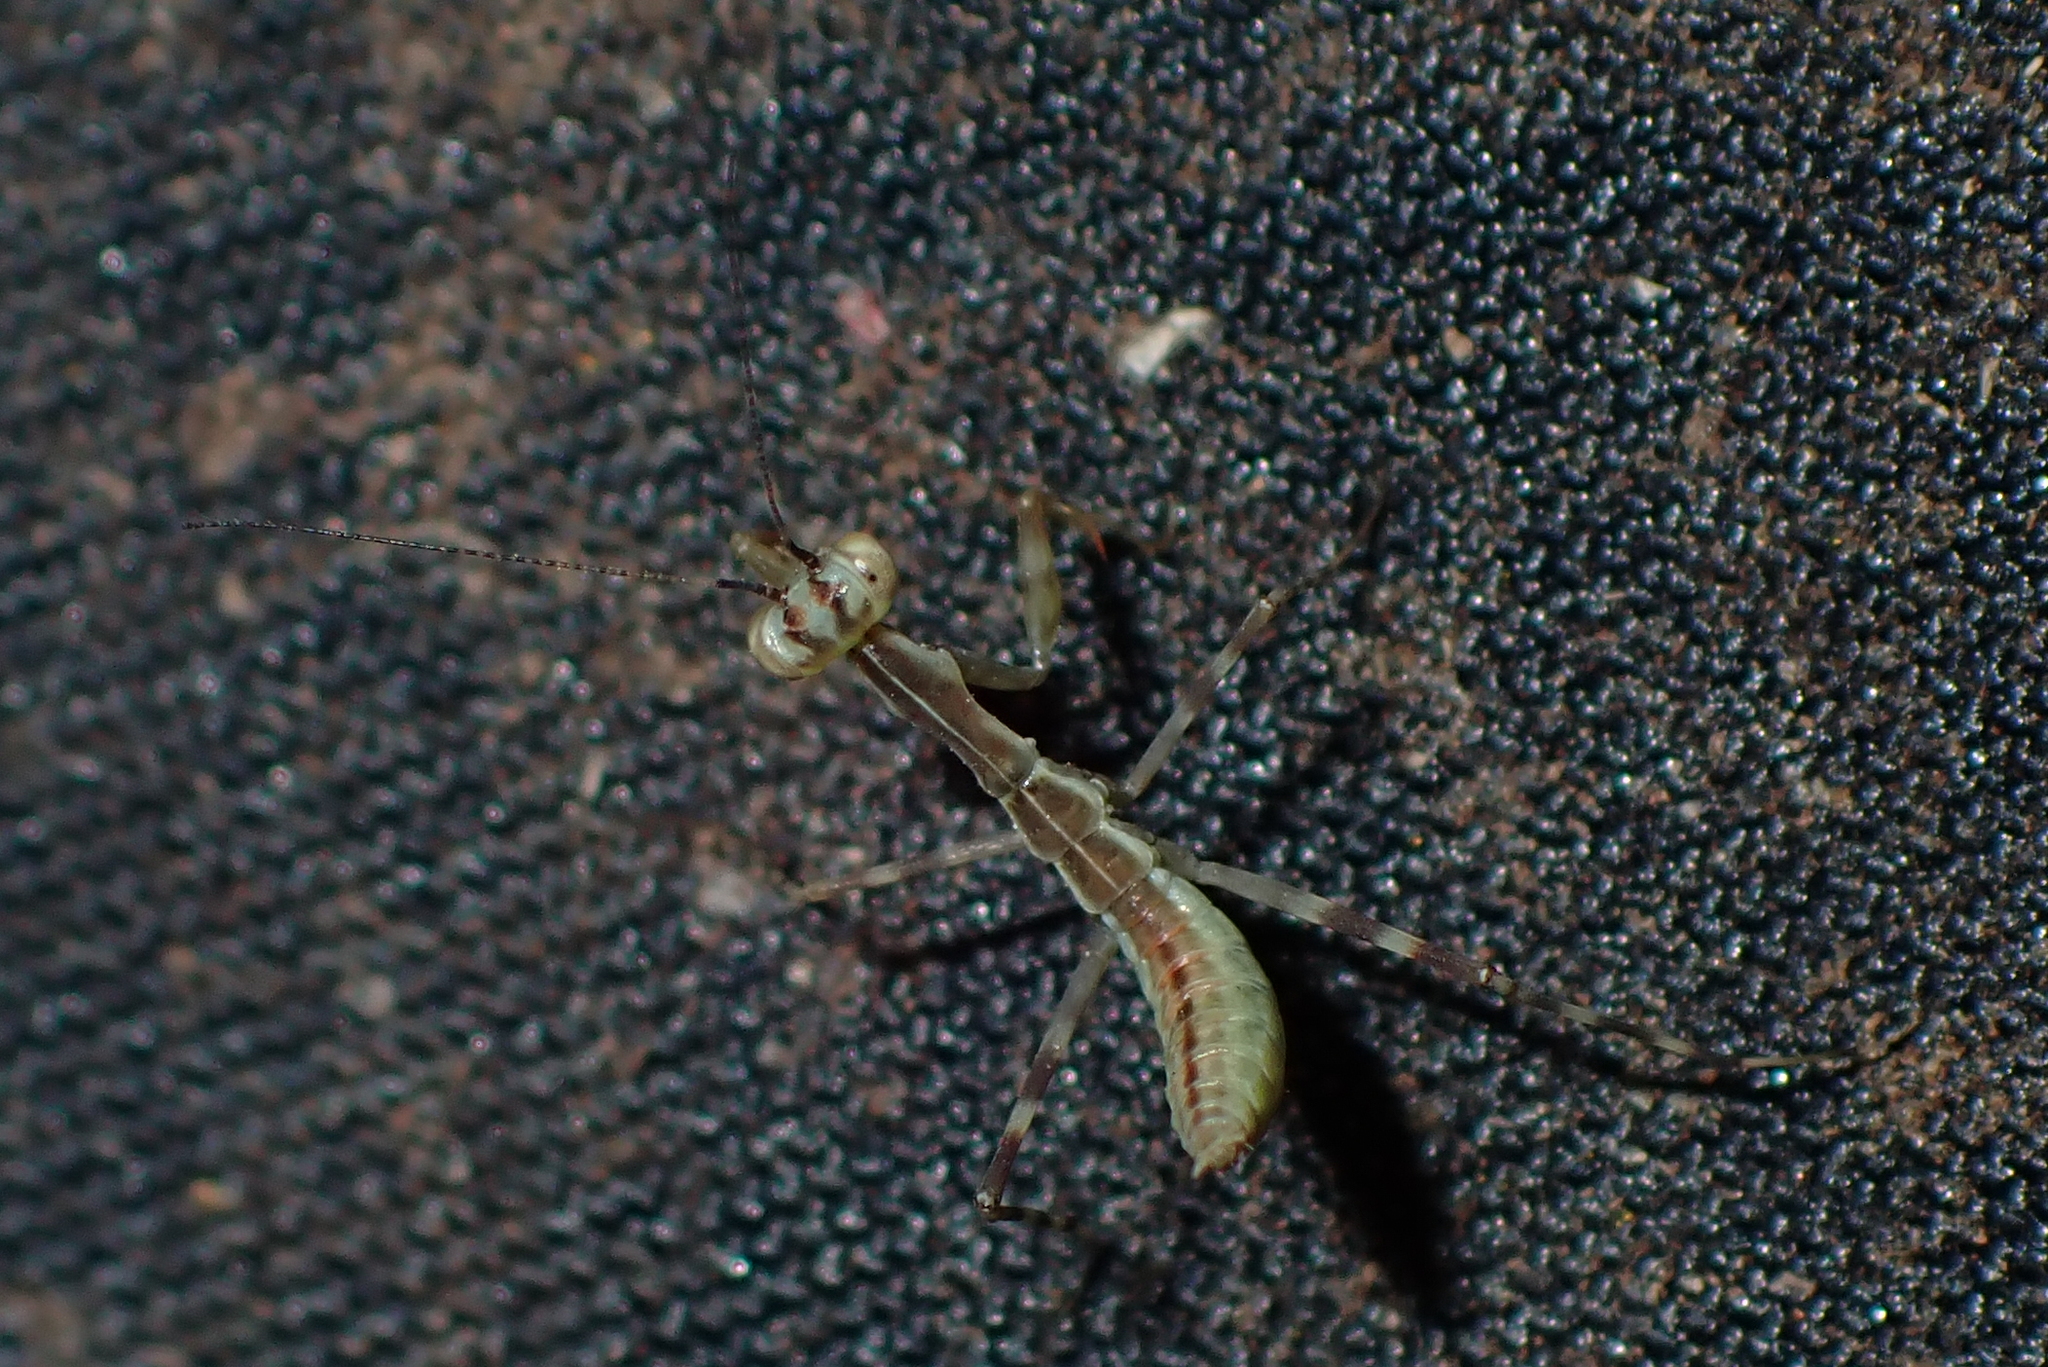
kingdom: Animalia
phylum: Arthropoda
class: Insecta
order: Mantodea
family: Miomantidae
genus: Miomantis
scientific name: Miomantis caffra
